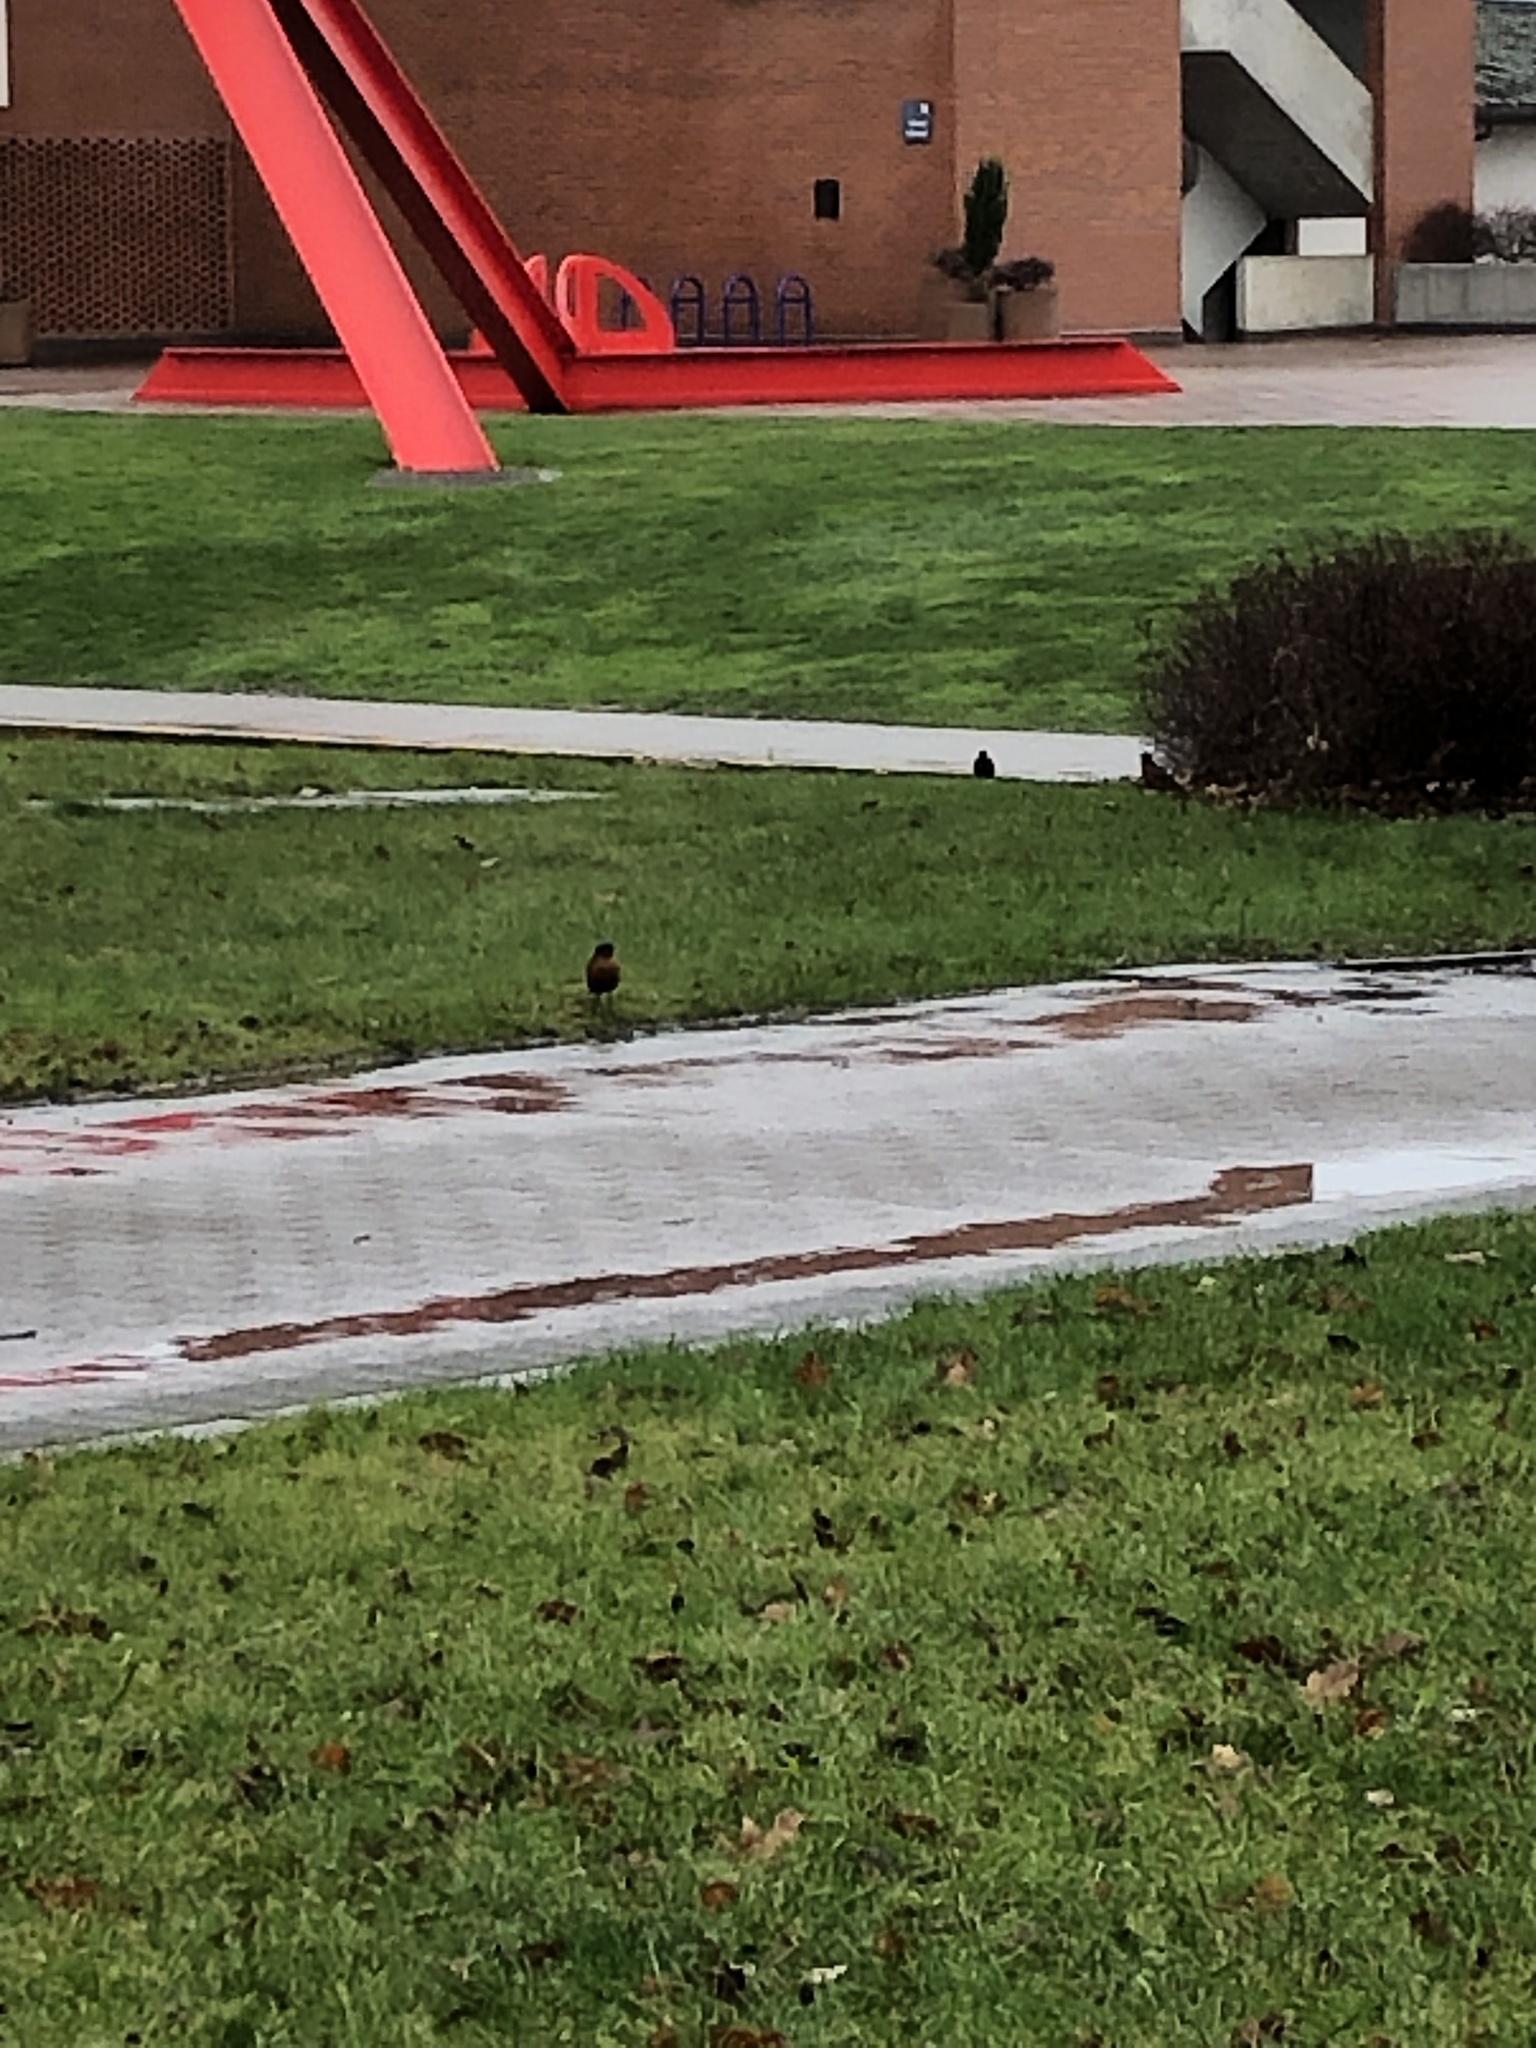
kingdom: Animalia
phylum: Chordata
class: Aves
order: Passeriformes
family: Turdidae
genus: Turdus
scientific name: Turdus migratorius
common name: American robin
